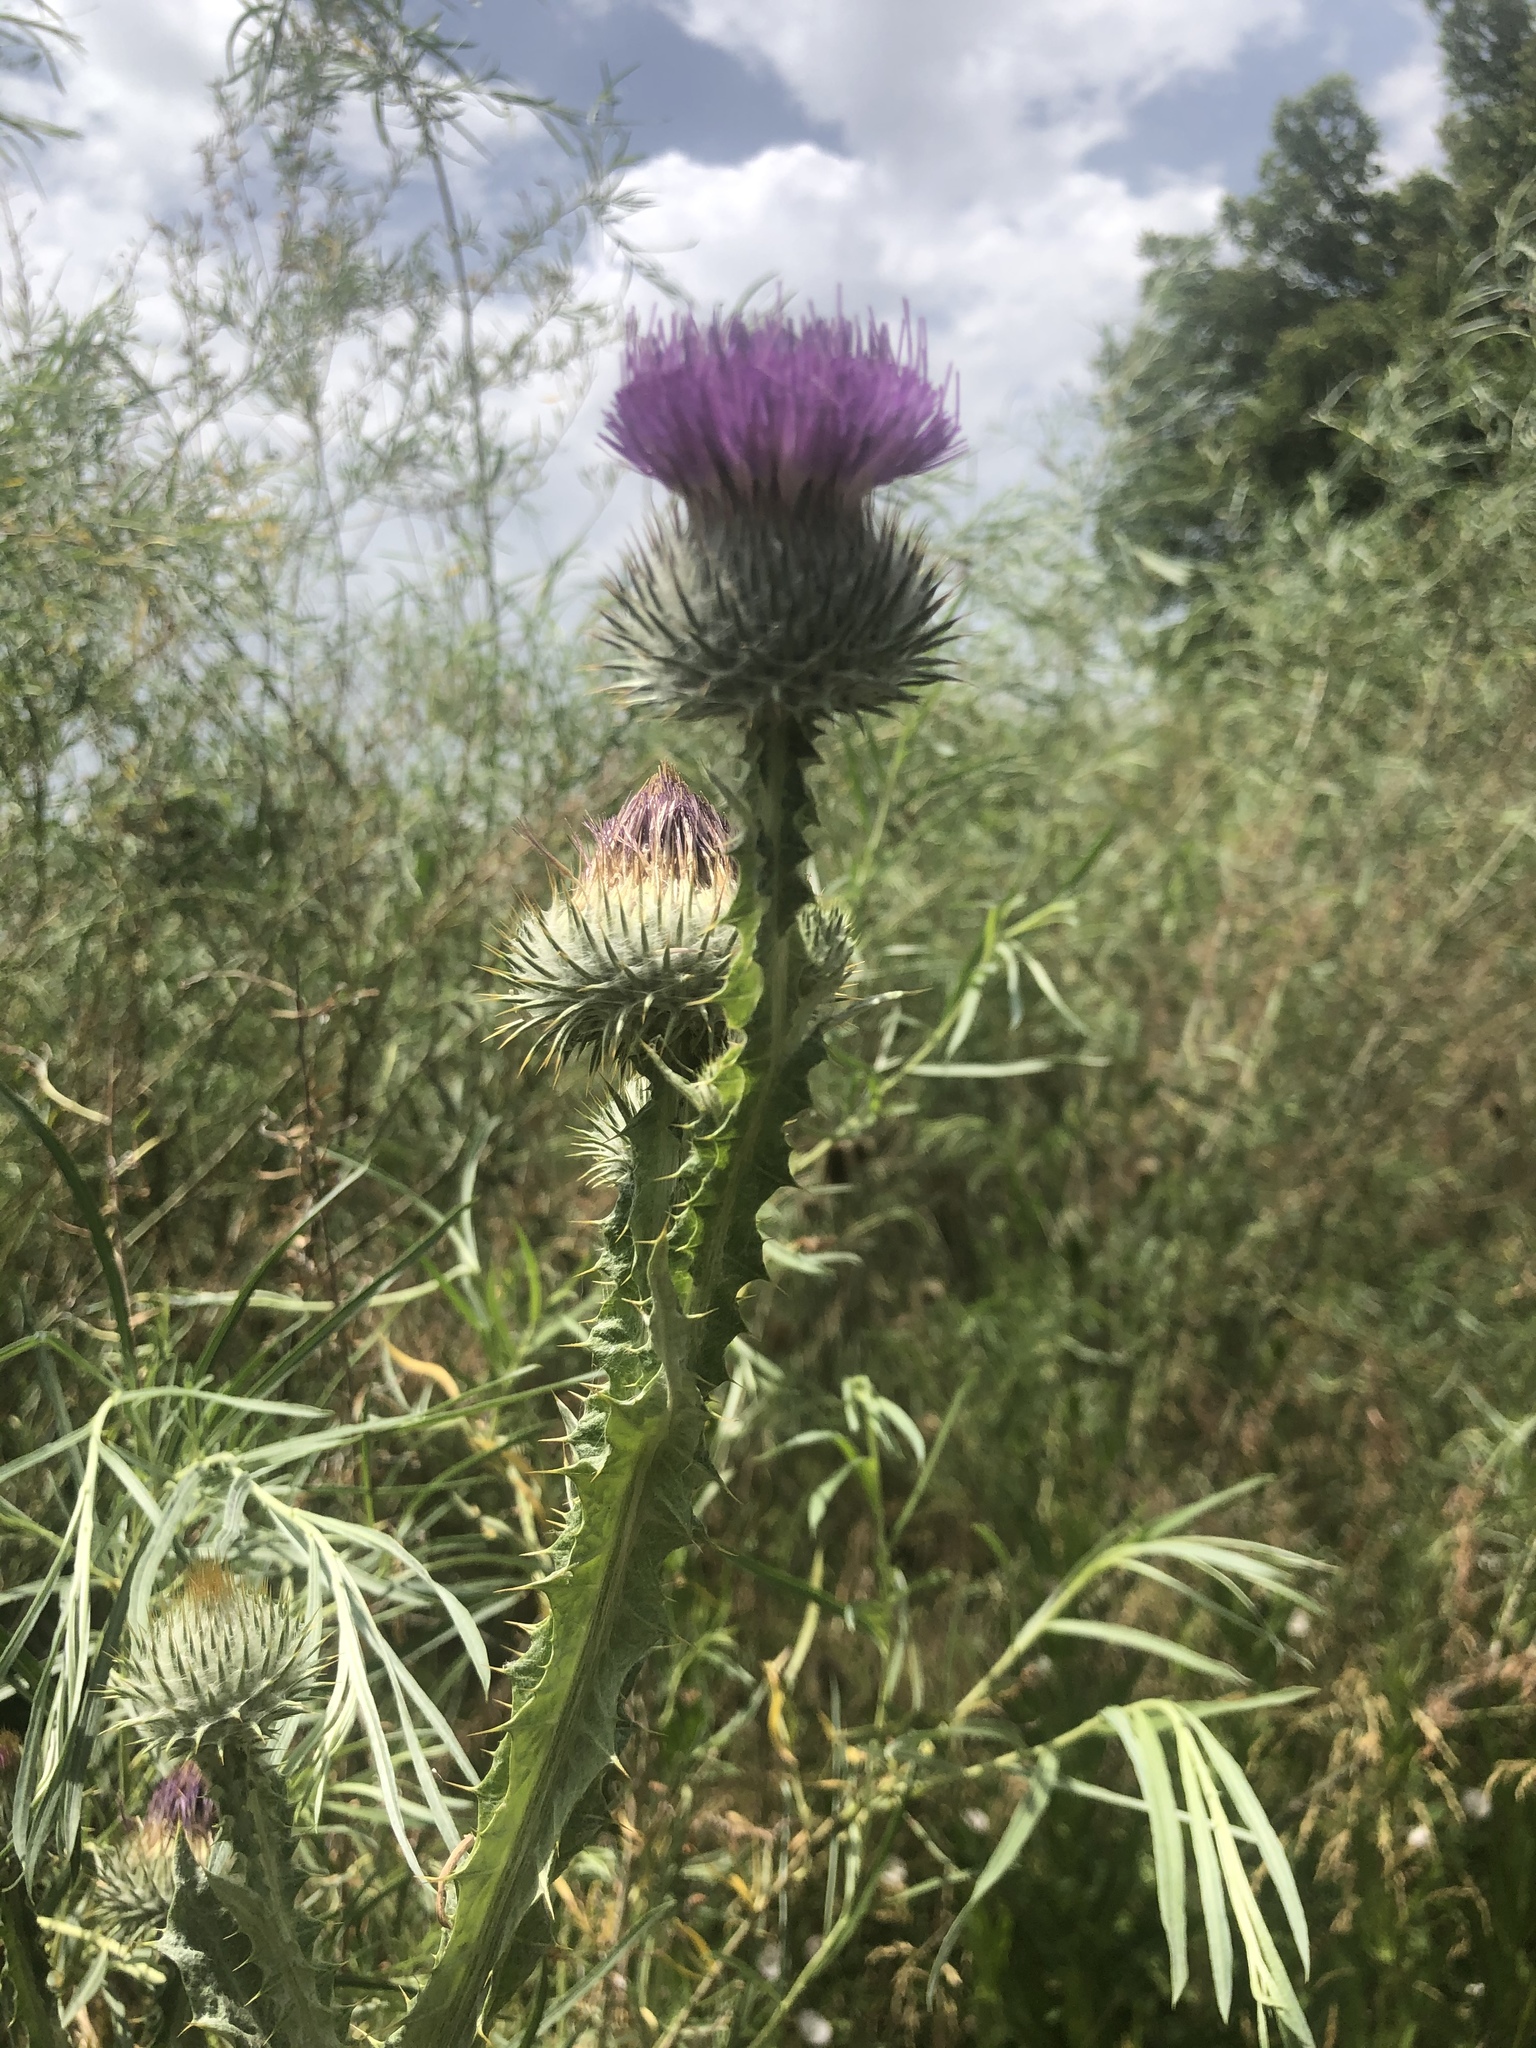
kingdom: Plantae
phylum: Tracheophyta
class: Magnoliopsida
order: Asterales
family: Asteraceae
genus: Onopordum
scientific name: Onopordum acanthium
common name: Scotch thistle
